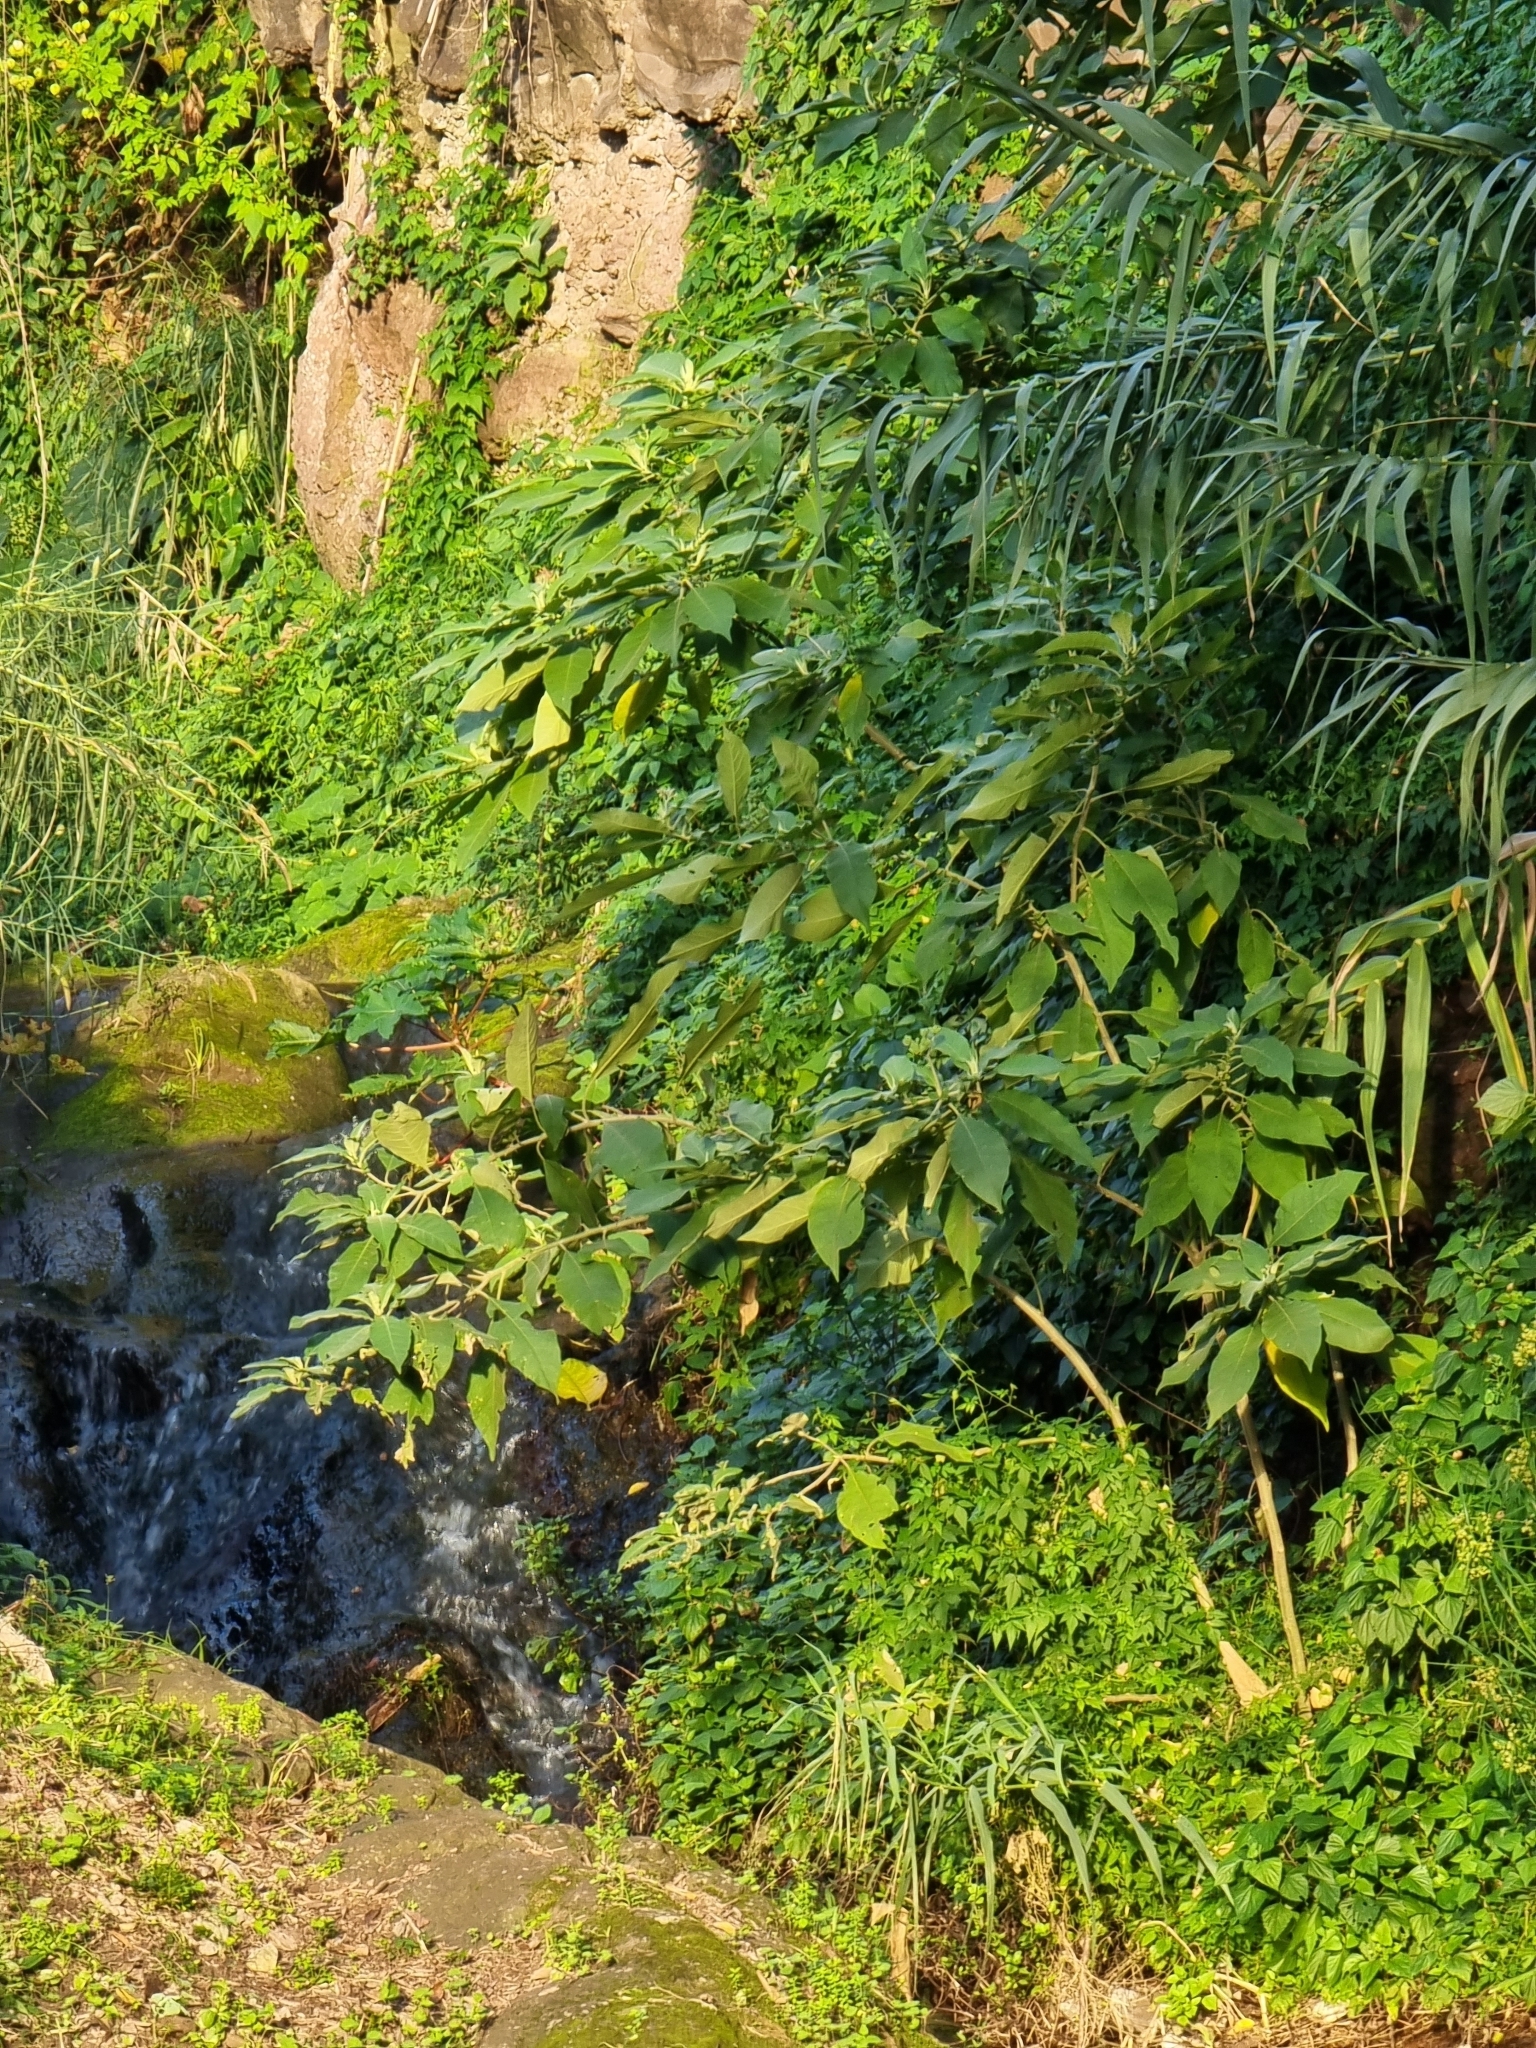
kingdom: Plantae
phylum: Tracheophyta
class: Magnoliopsida
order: Solanales
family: Solanaceae
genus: Solanum
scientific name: Solanum mauritianum
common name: Earleaf nightshade
